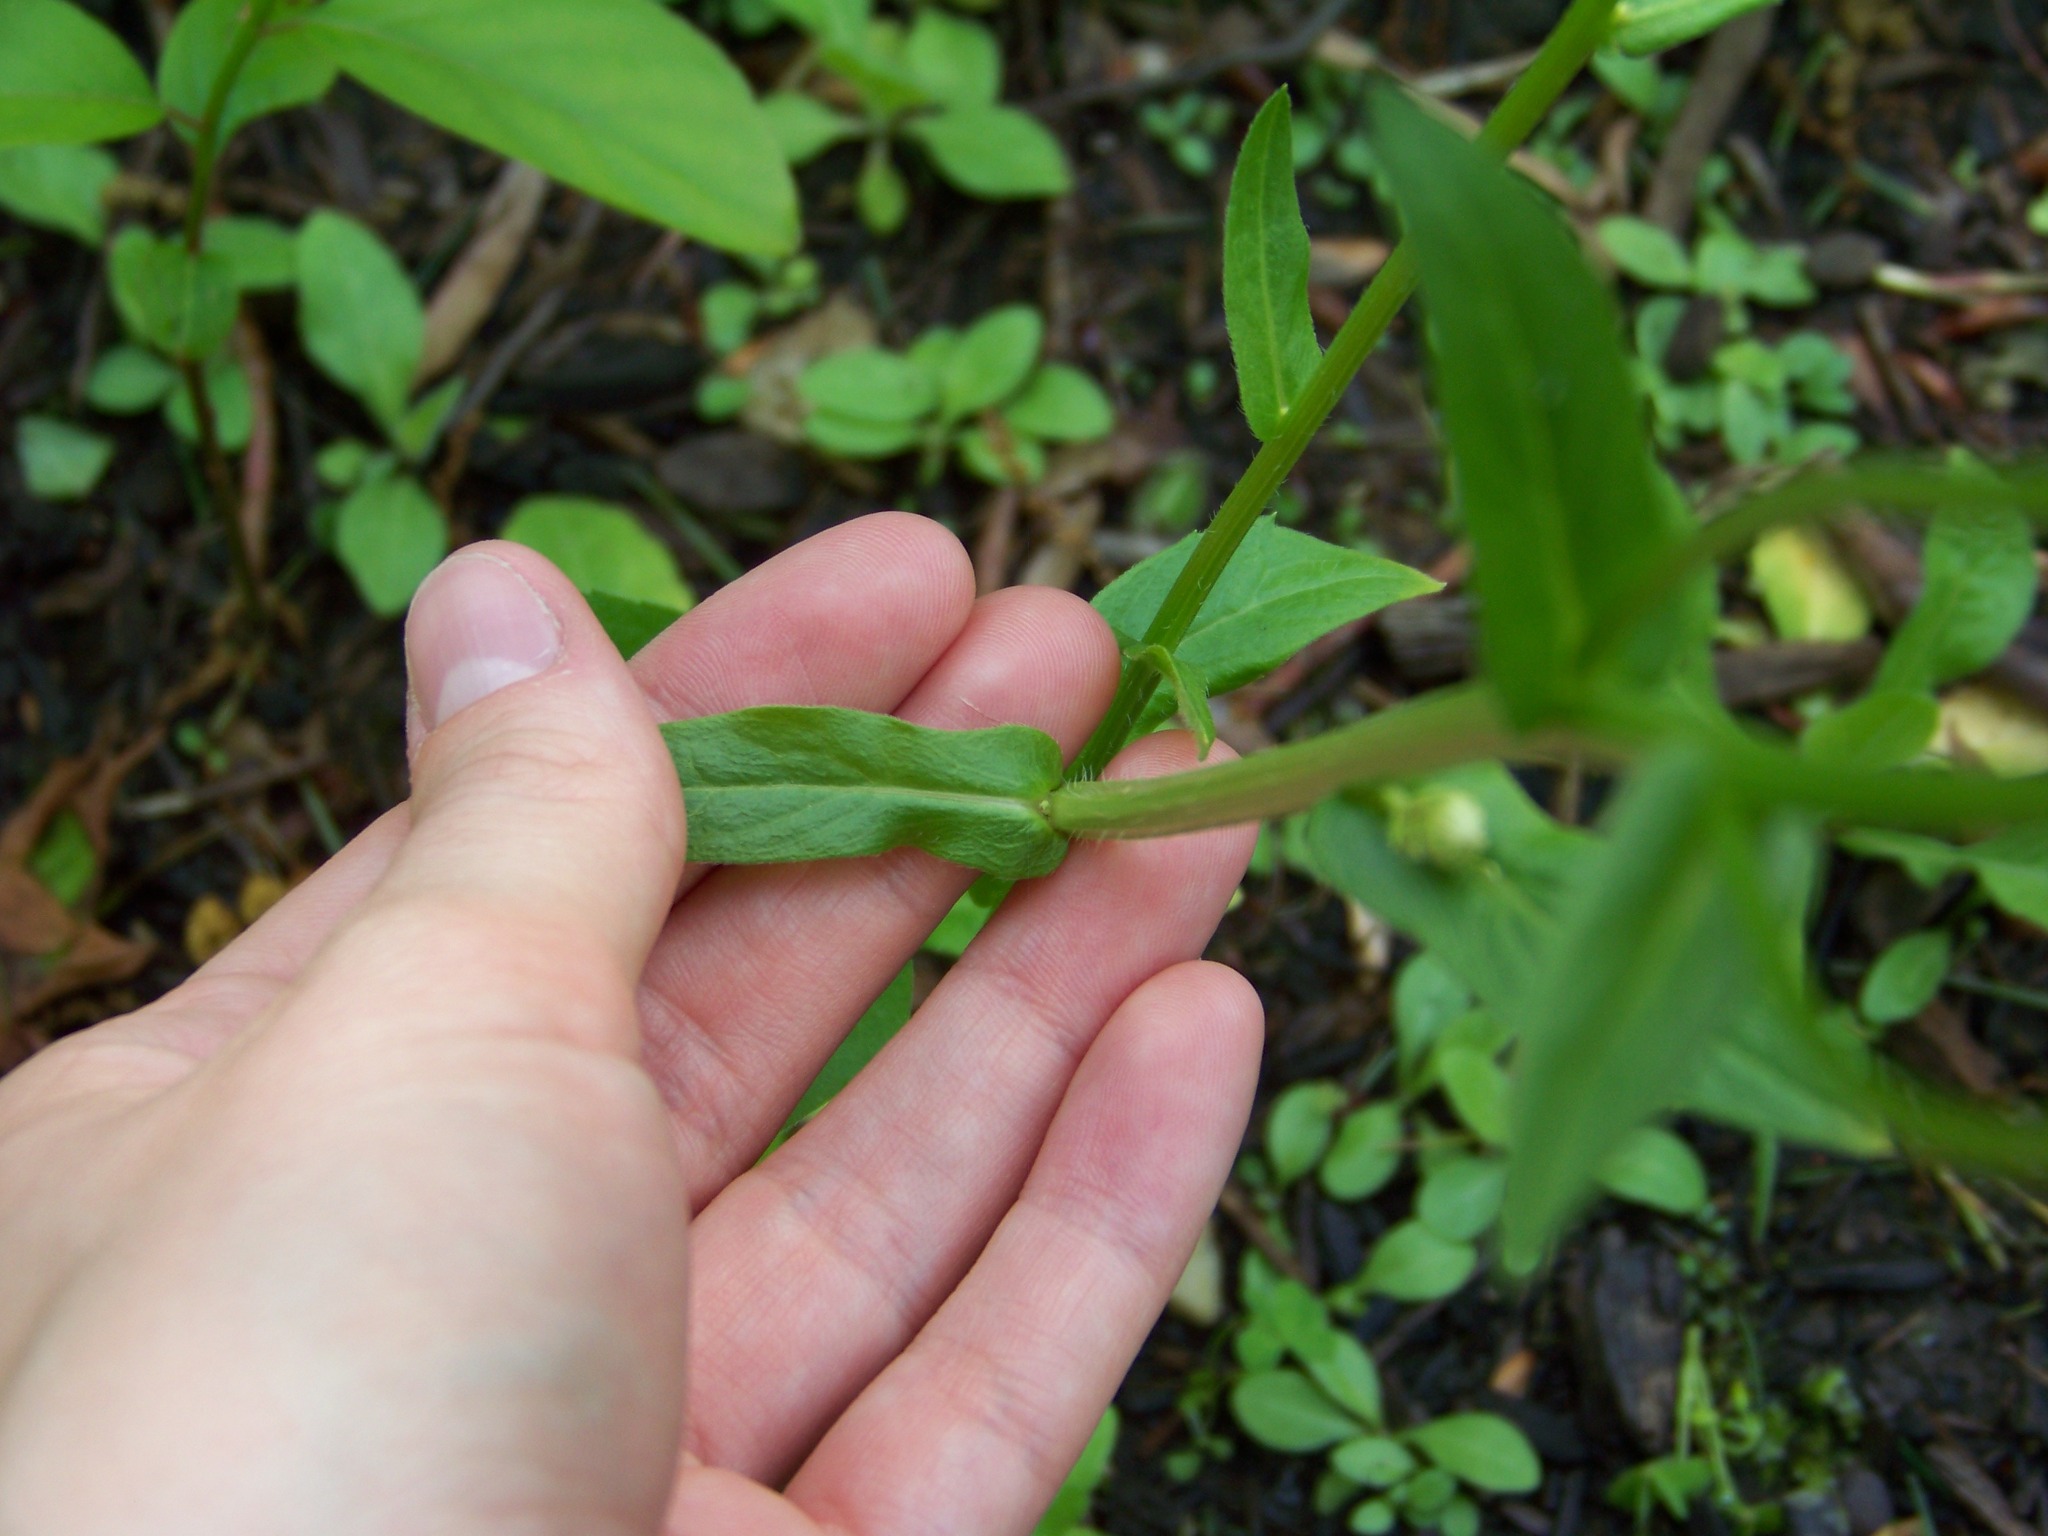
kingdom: Plantae
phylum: Tracheophyta
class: Magnoliopsida
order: Asterales
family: Asteraceae
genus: Erigeron
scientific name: Erigeron philadelphicus
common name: Robin's-plantain
